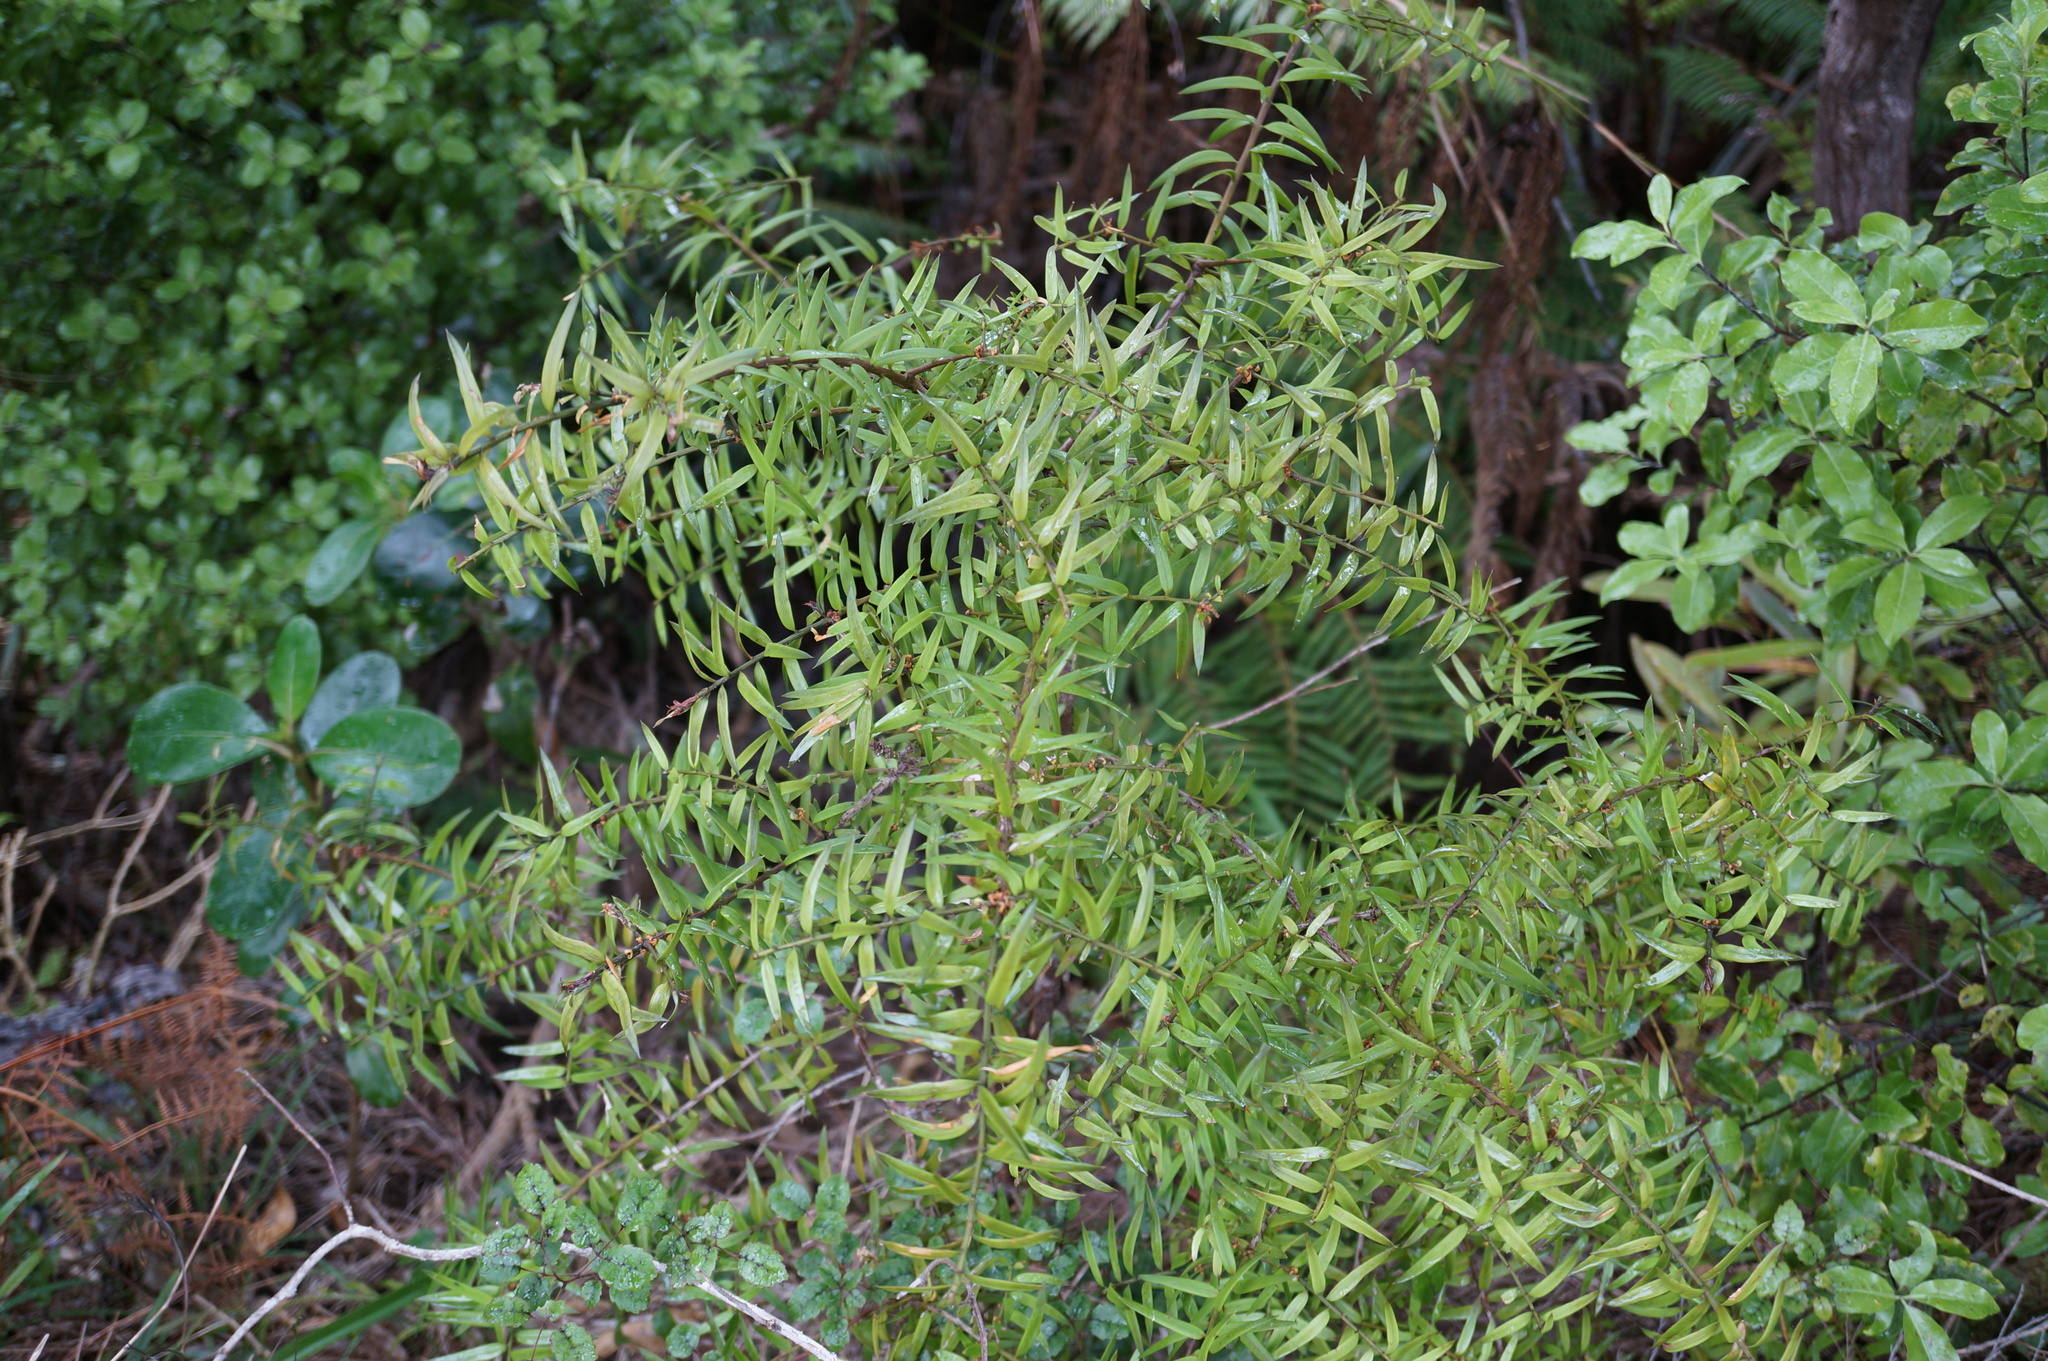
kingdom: Plantae
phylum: Tracheophyta
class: Pinopsida
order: Pinales
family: Podocarpaceae
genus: Podocarpus
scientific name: Podocarpus totara
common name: Totara
